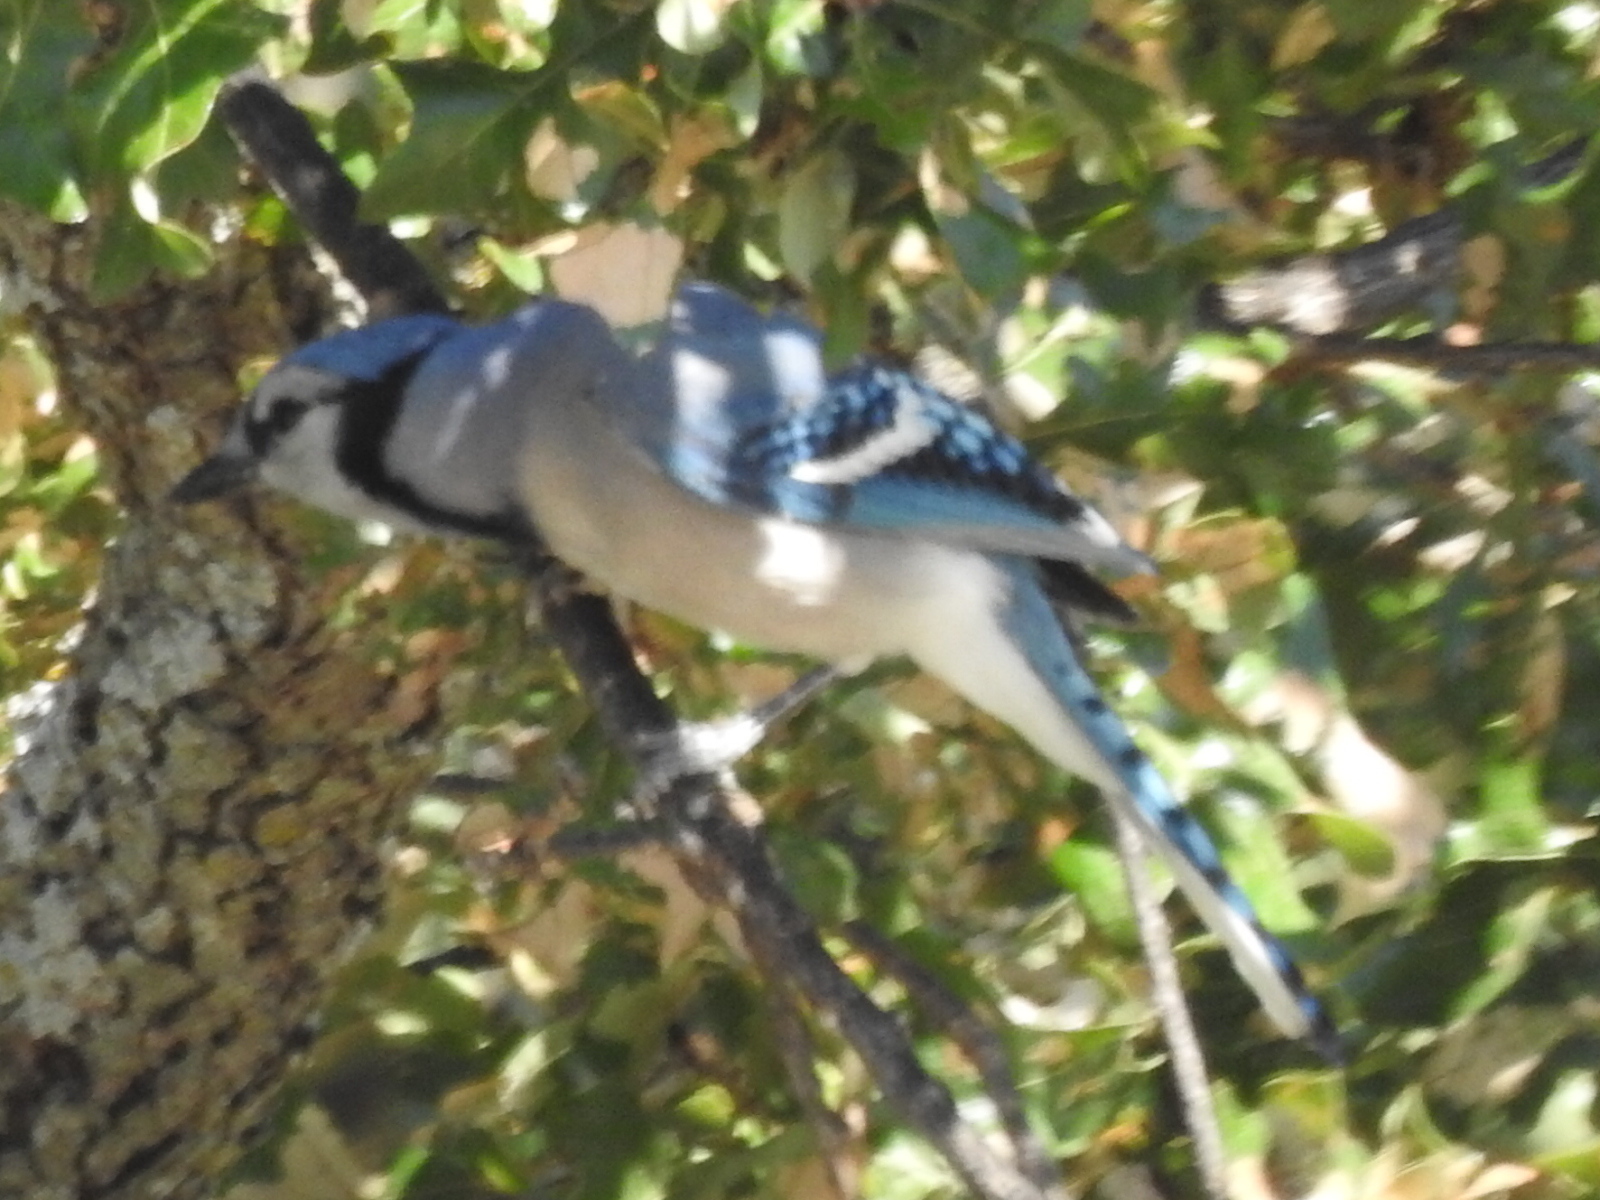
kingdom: Animalia
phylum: Chordata
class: Aves
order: Passeriformes
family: Corvidae
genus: Cyanocitta
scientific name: Cyanocitta cristata
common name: Blue jay
